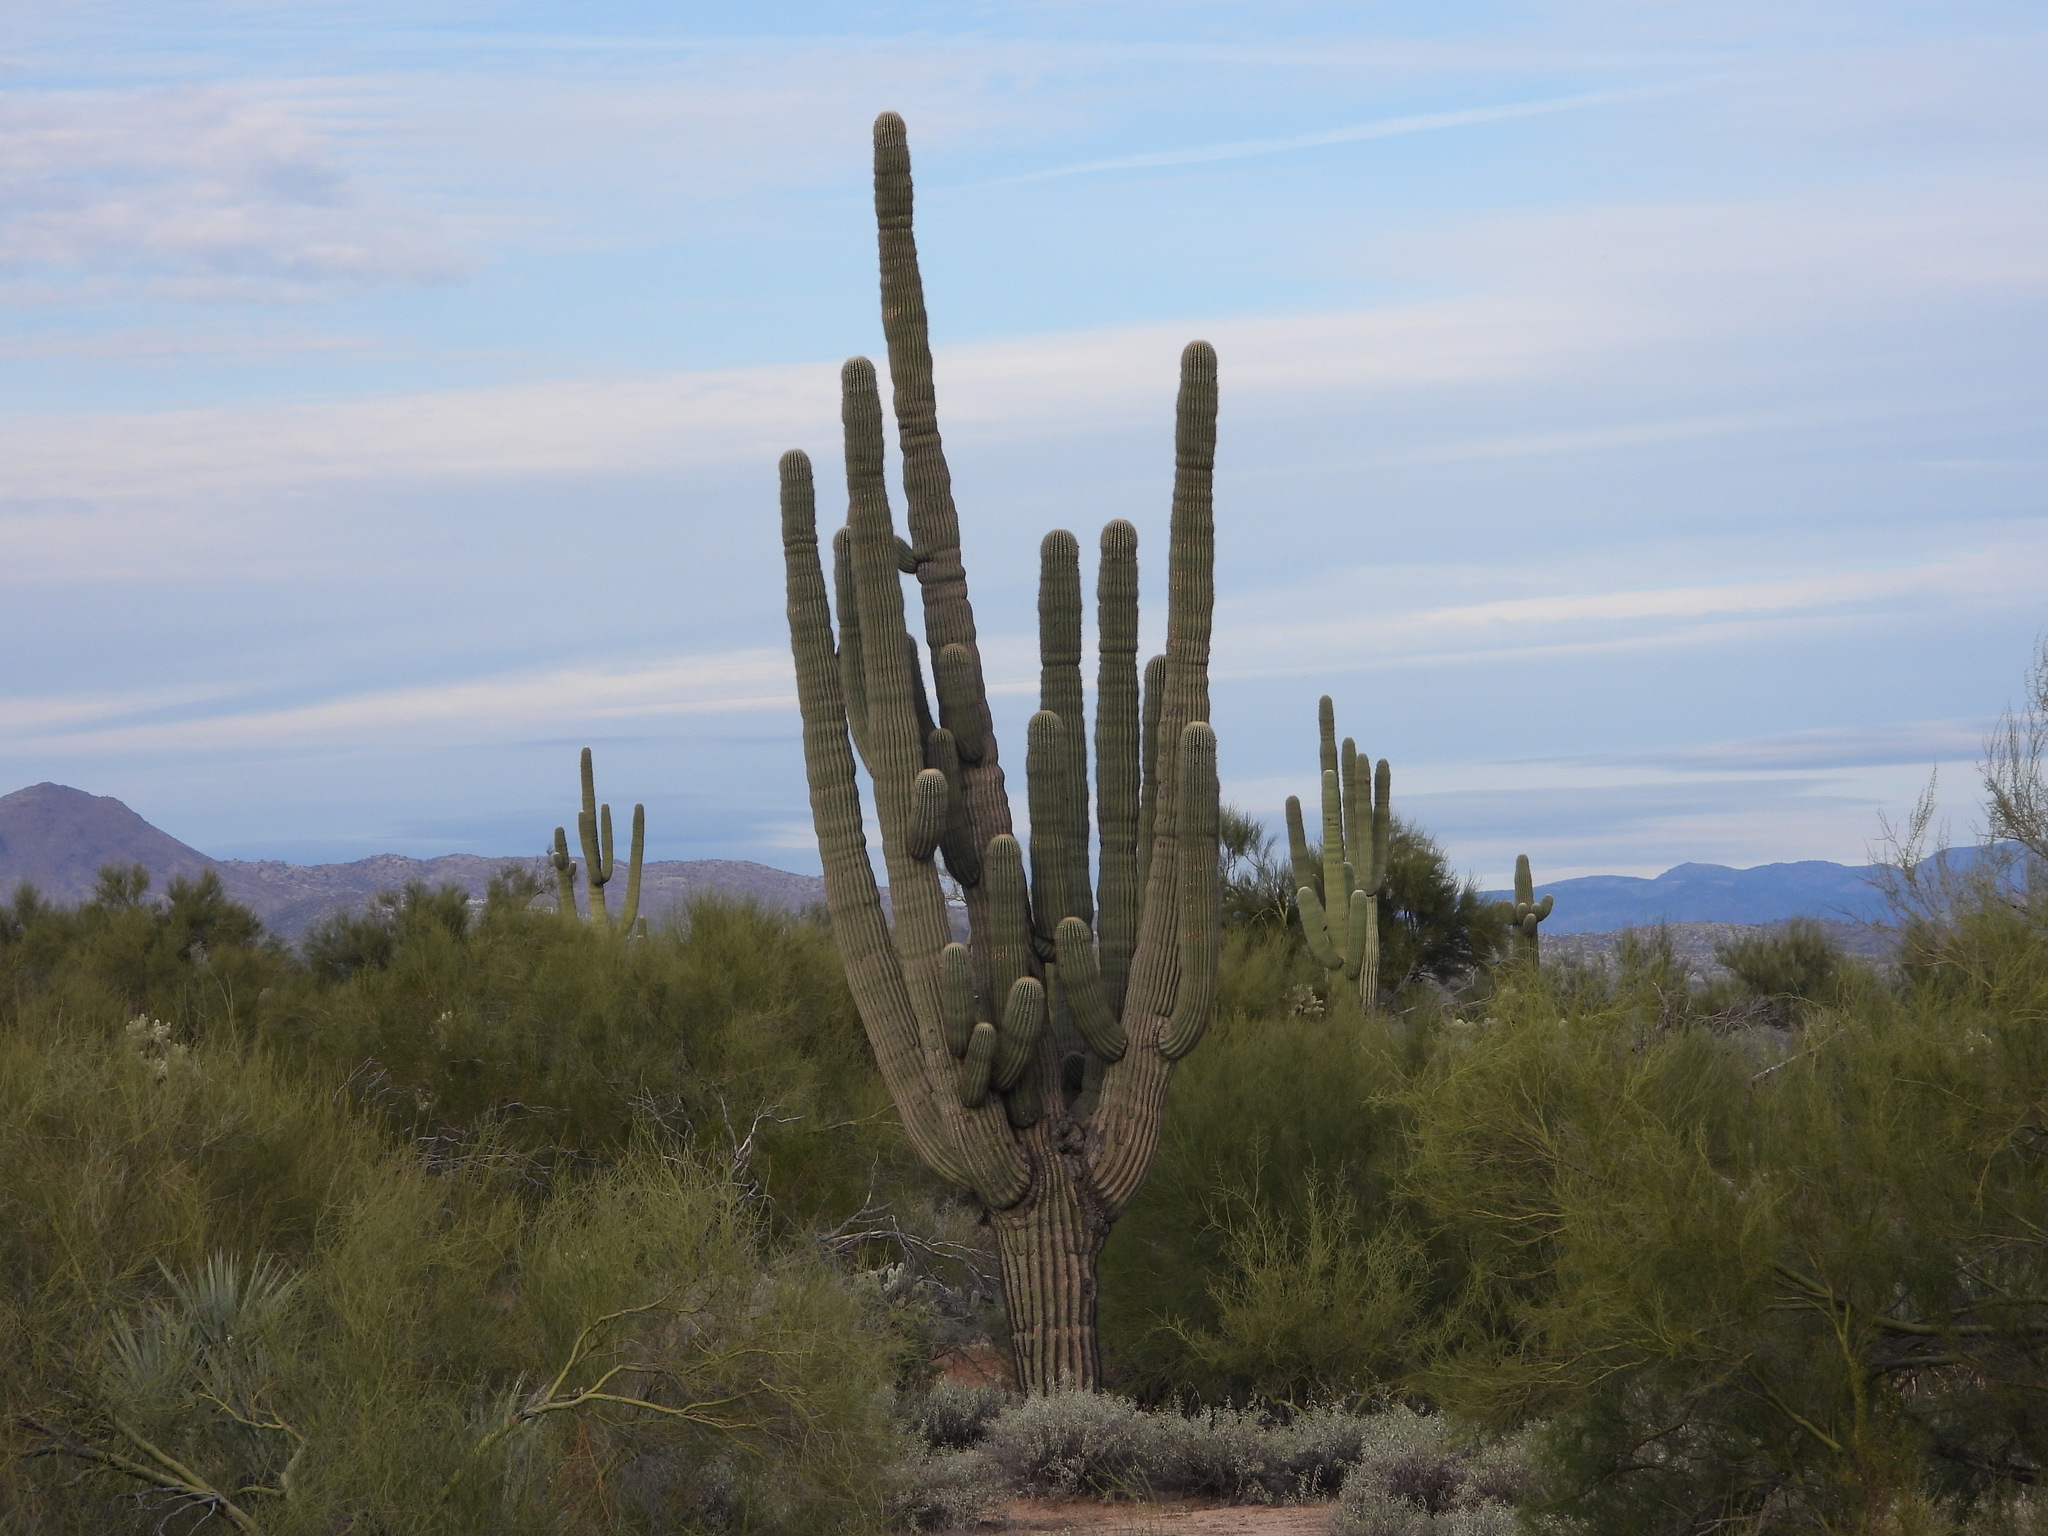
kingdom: Plantae
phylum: Tracheophyta
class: Magnoliopsida
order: Caryophyllales
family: Cactaceae
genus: Carnegiea
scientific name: Carnegiea gigantea
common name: Saguaro
